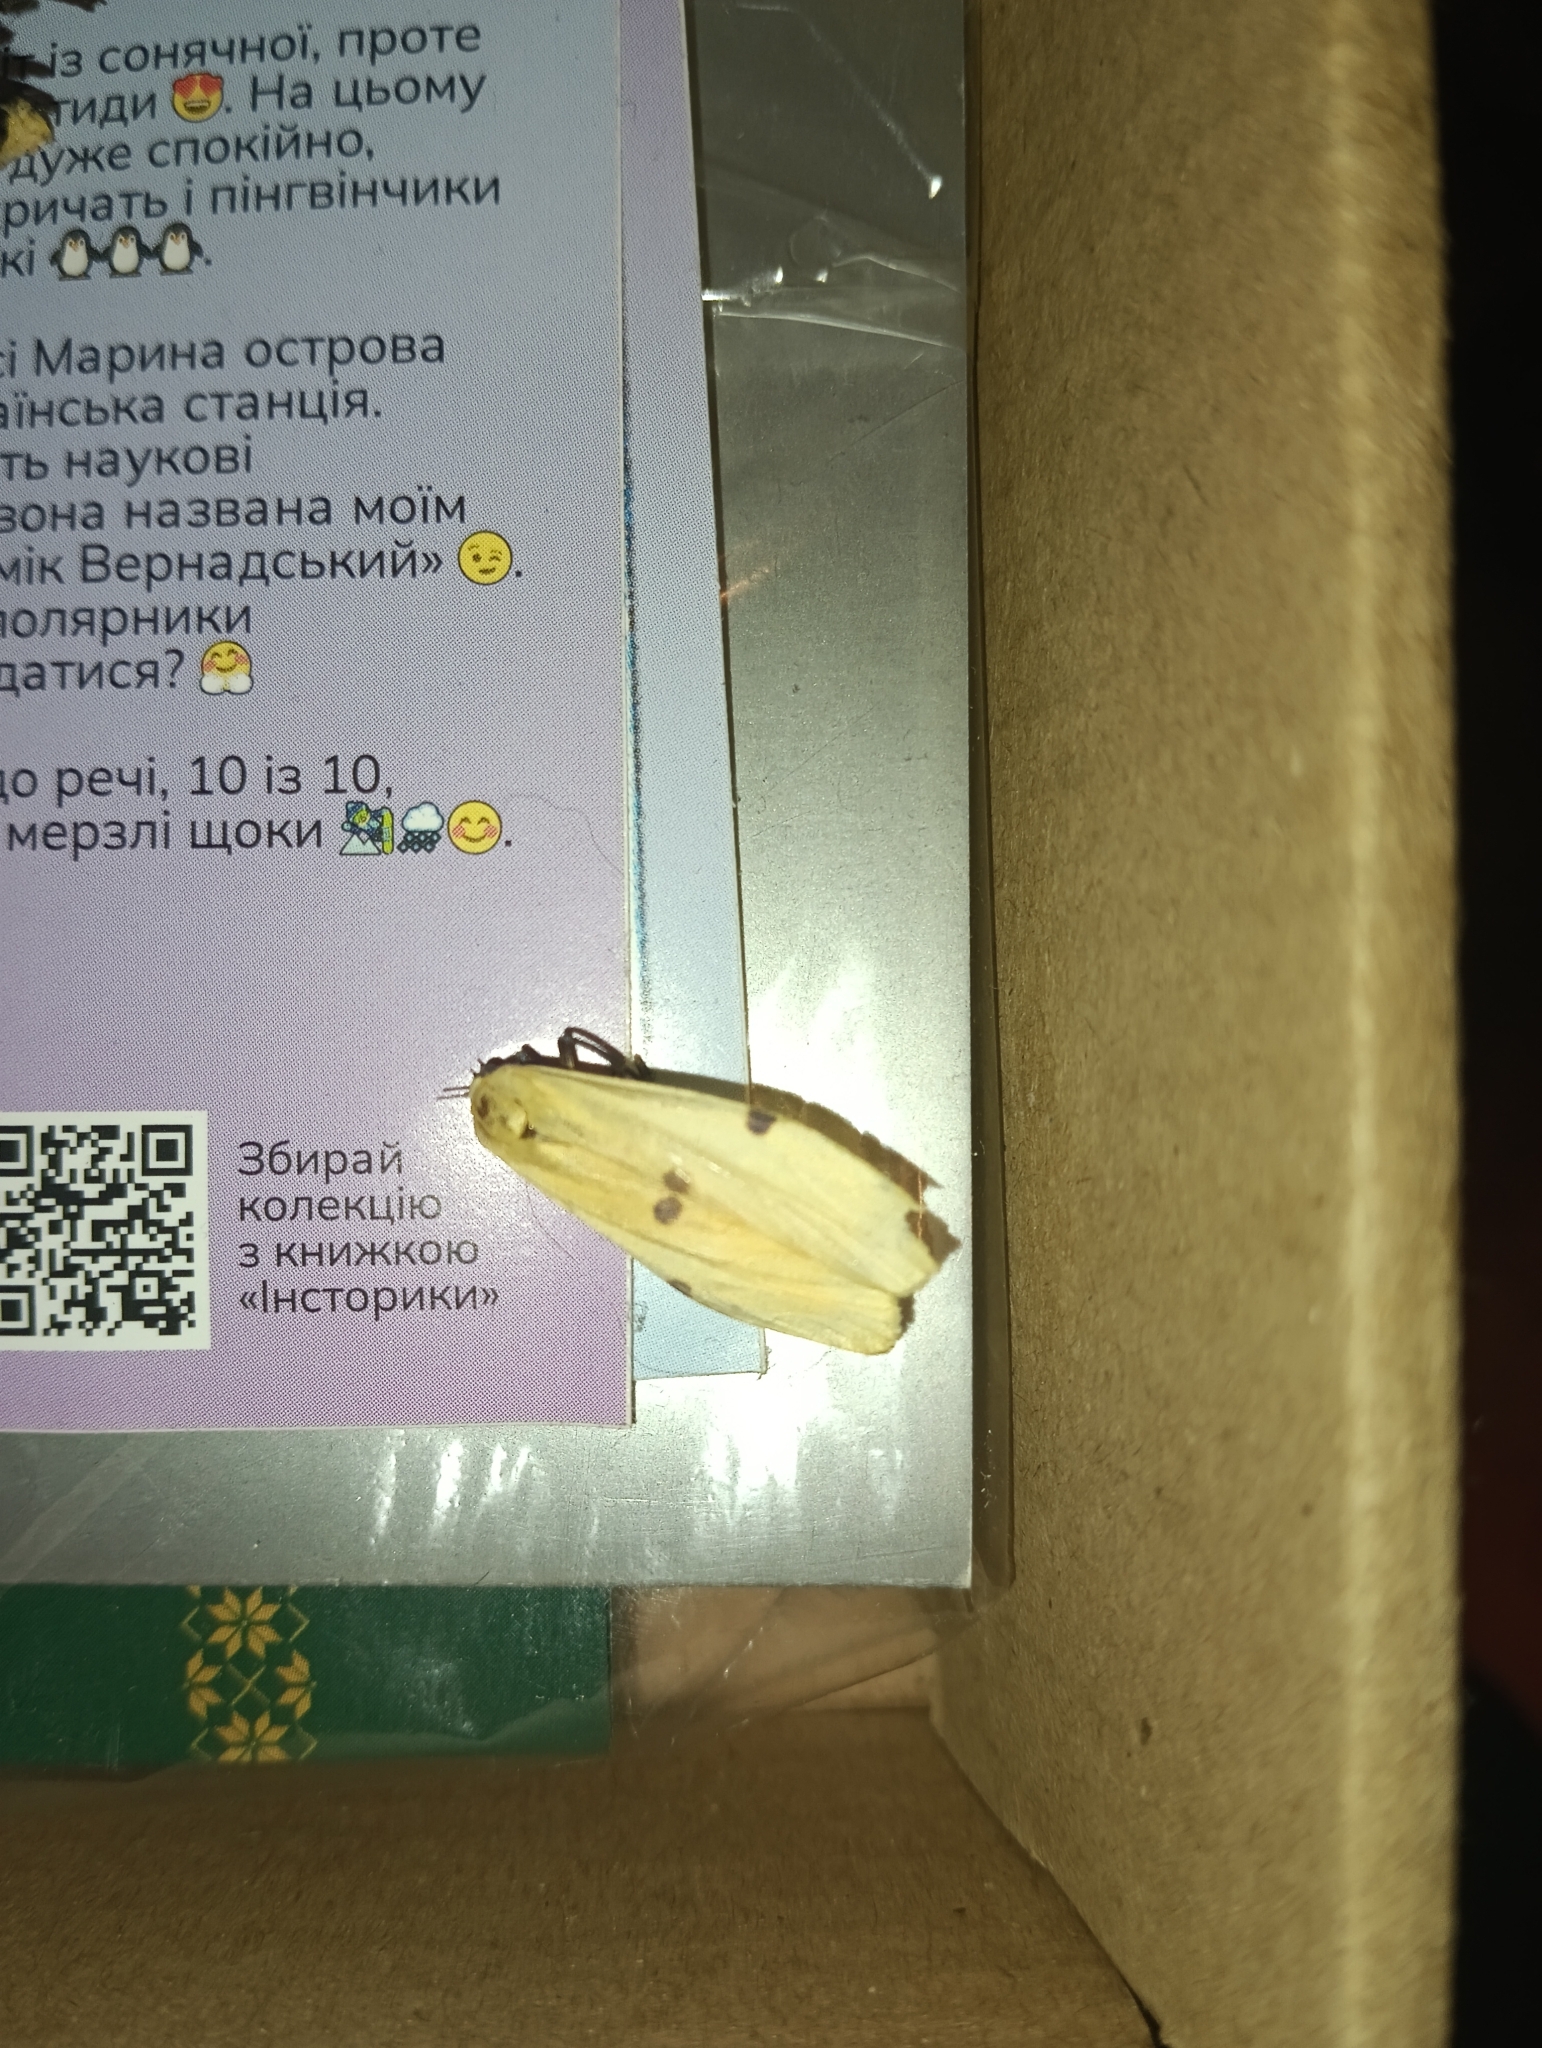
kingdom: Animalia
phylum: Arthropoda
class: Insecta
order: Lepidoptera
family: Erebidae
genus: Lithosia
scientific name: Lithosia quadra
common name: Four-spotted footman
